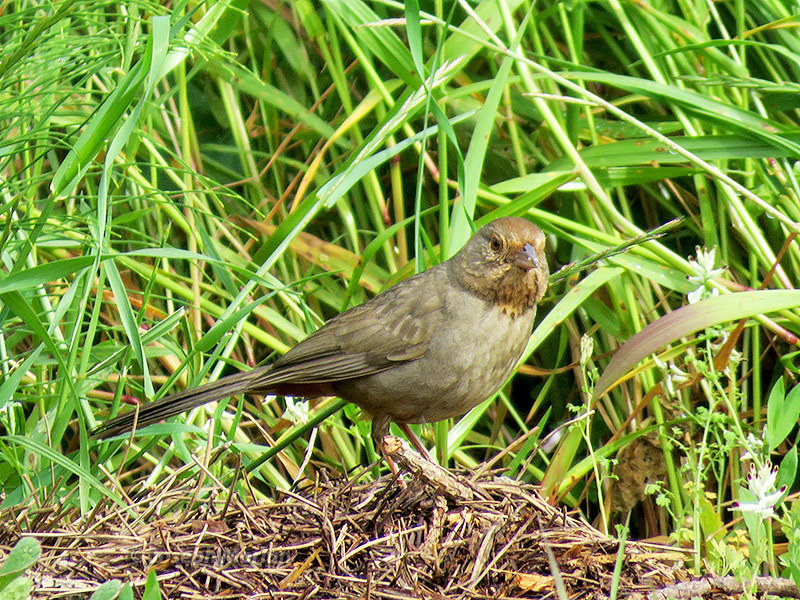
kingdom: Animalia
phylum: Chordata
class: Aves
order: Passeriformes
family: Passerellidae
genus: Melozone
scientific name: Melozone crissalis
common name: California towhee
